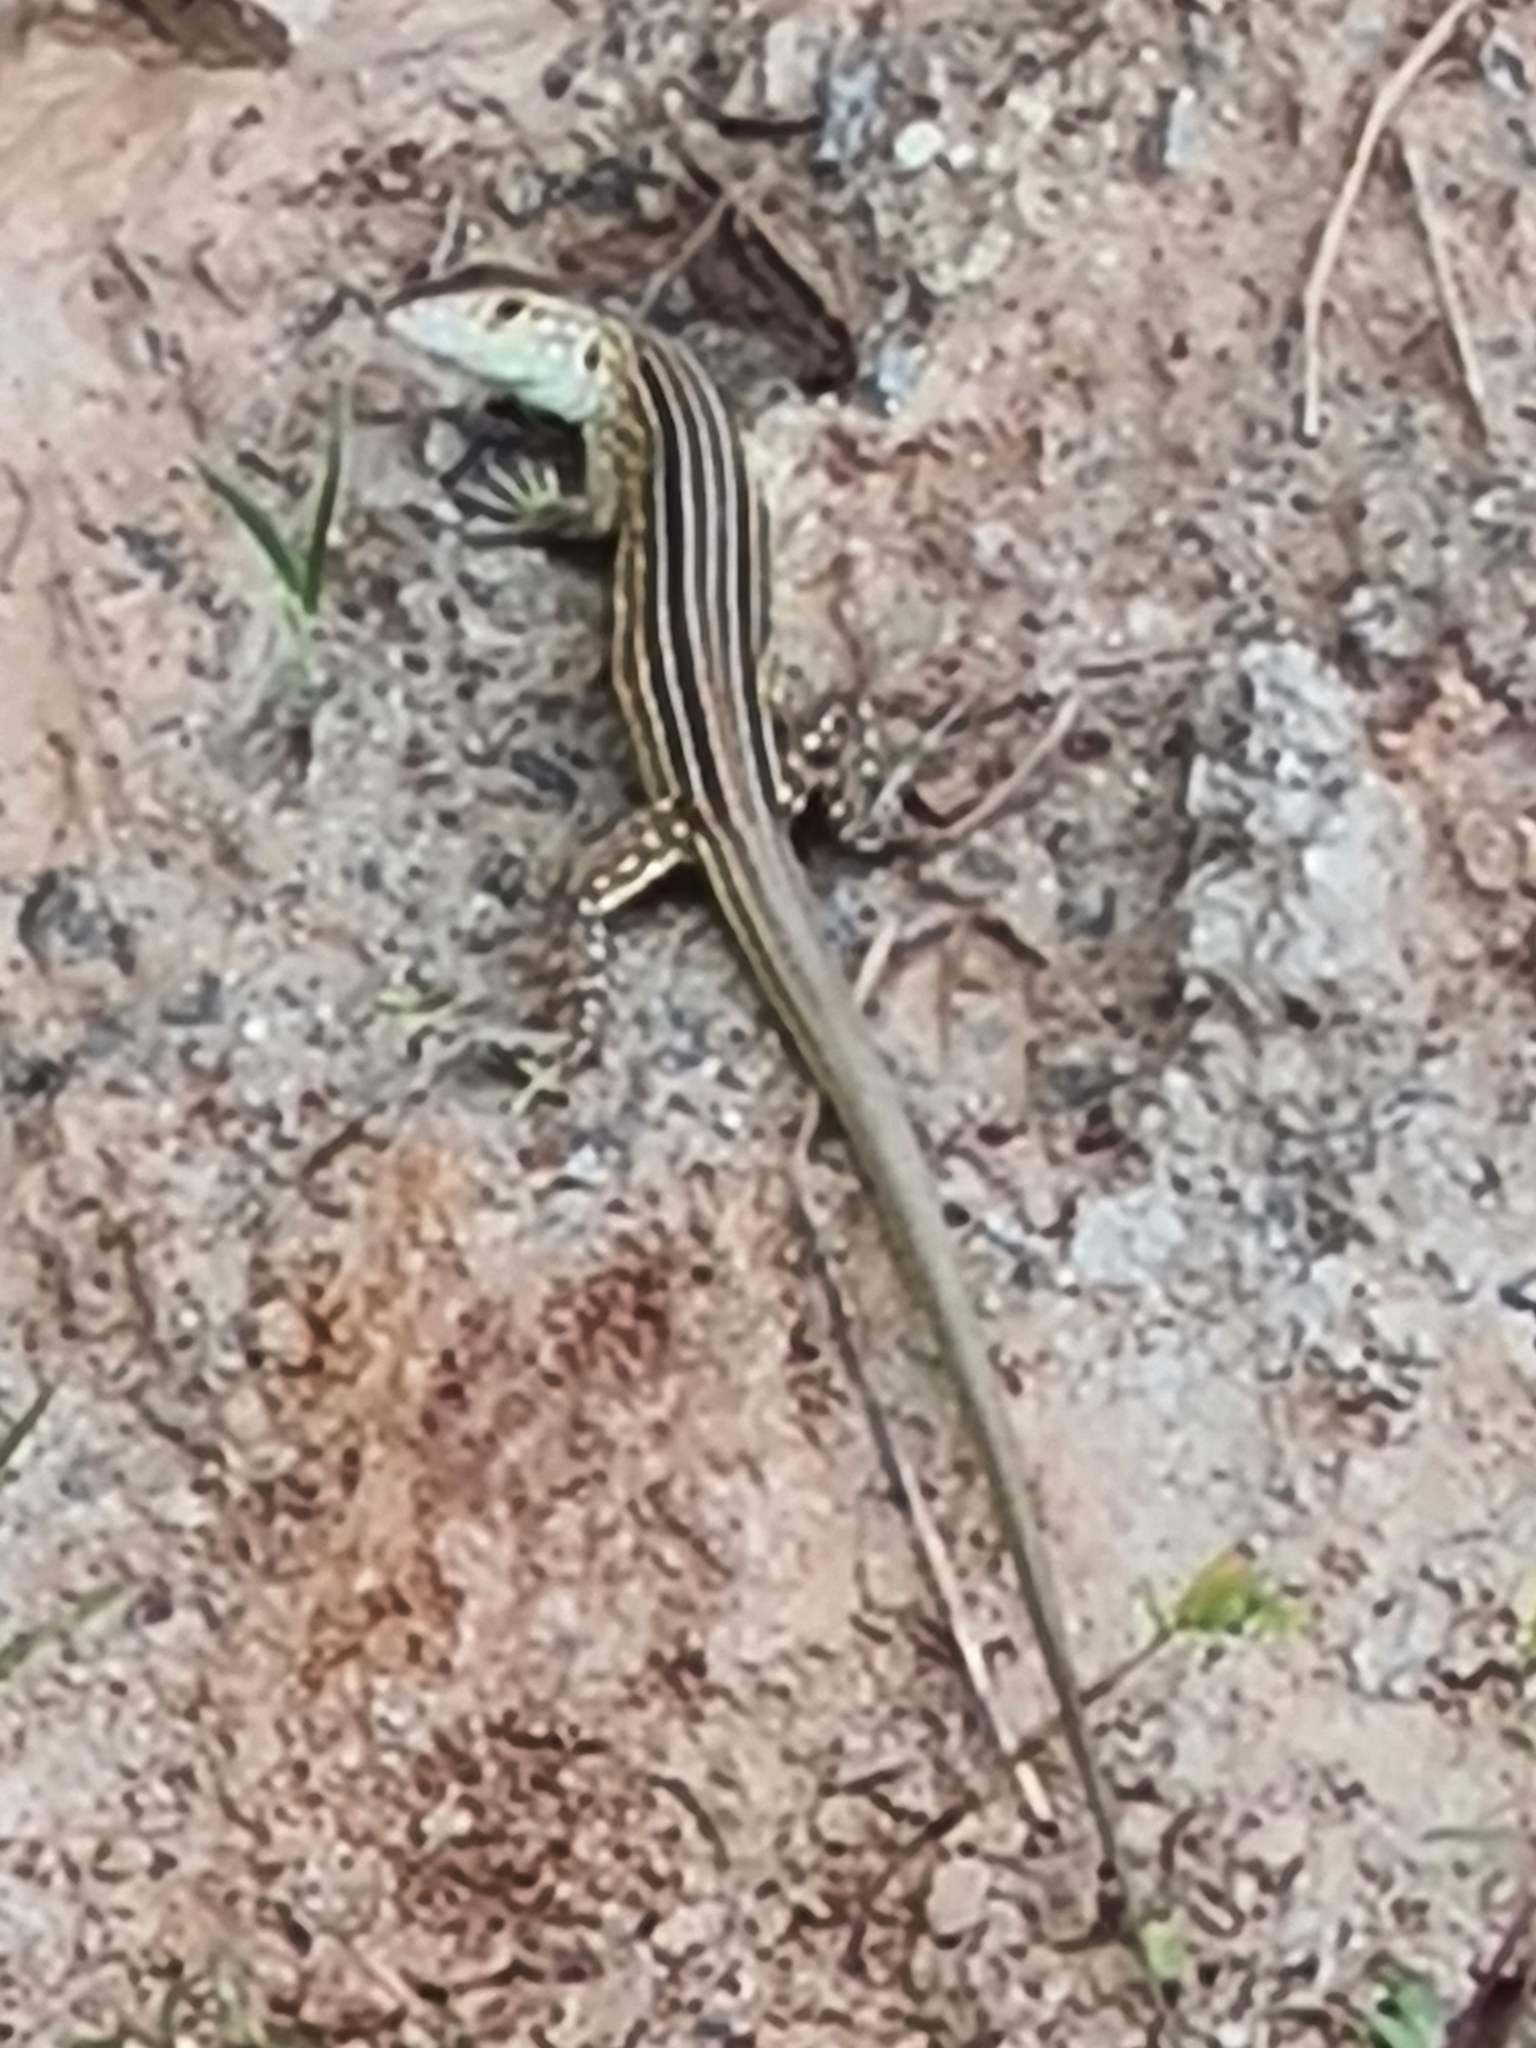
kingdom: Animalia
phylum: Chordata
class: Squamata
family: Teiidae
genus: Cnemidophorus
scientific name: Cnemidophorus lemniscatus
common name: Rainbow whiptail
